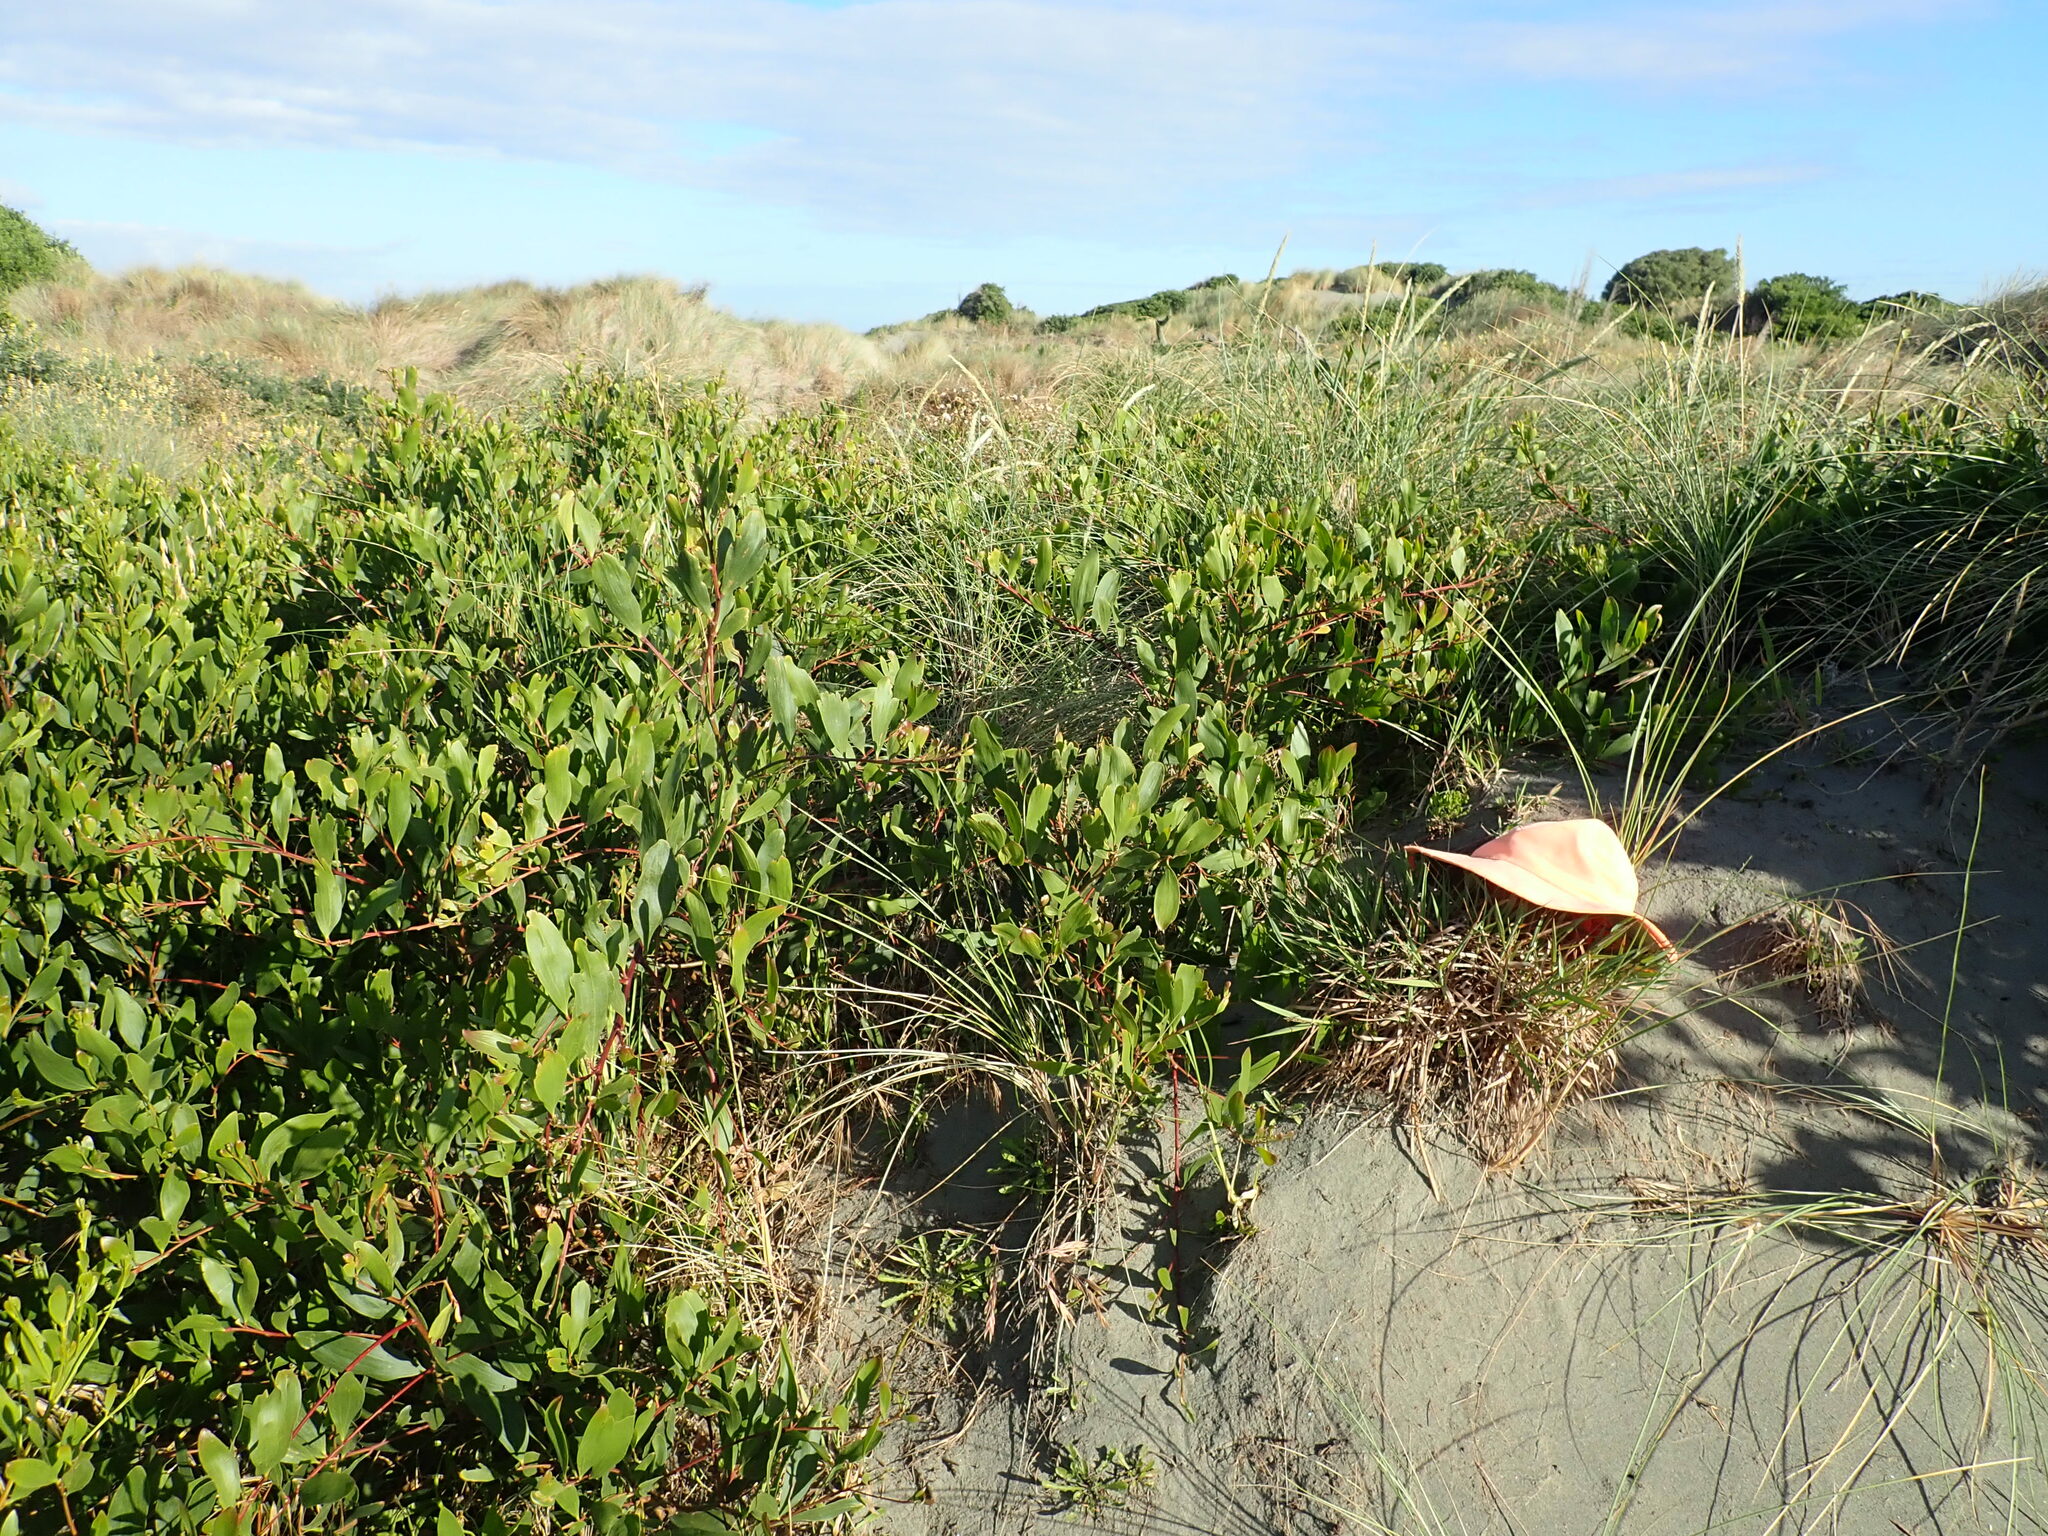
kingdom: Plantae
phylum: Tracheophyta
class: Liliopsida
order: Poales
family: Poaceae
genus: Lachnagrostis
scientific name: Lachnagrostis billardierei
